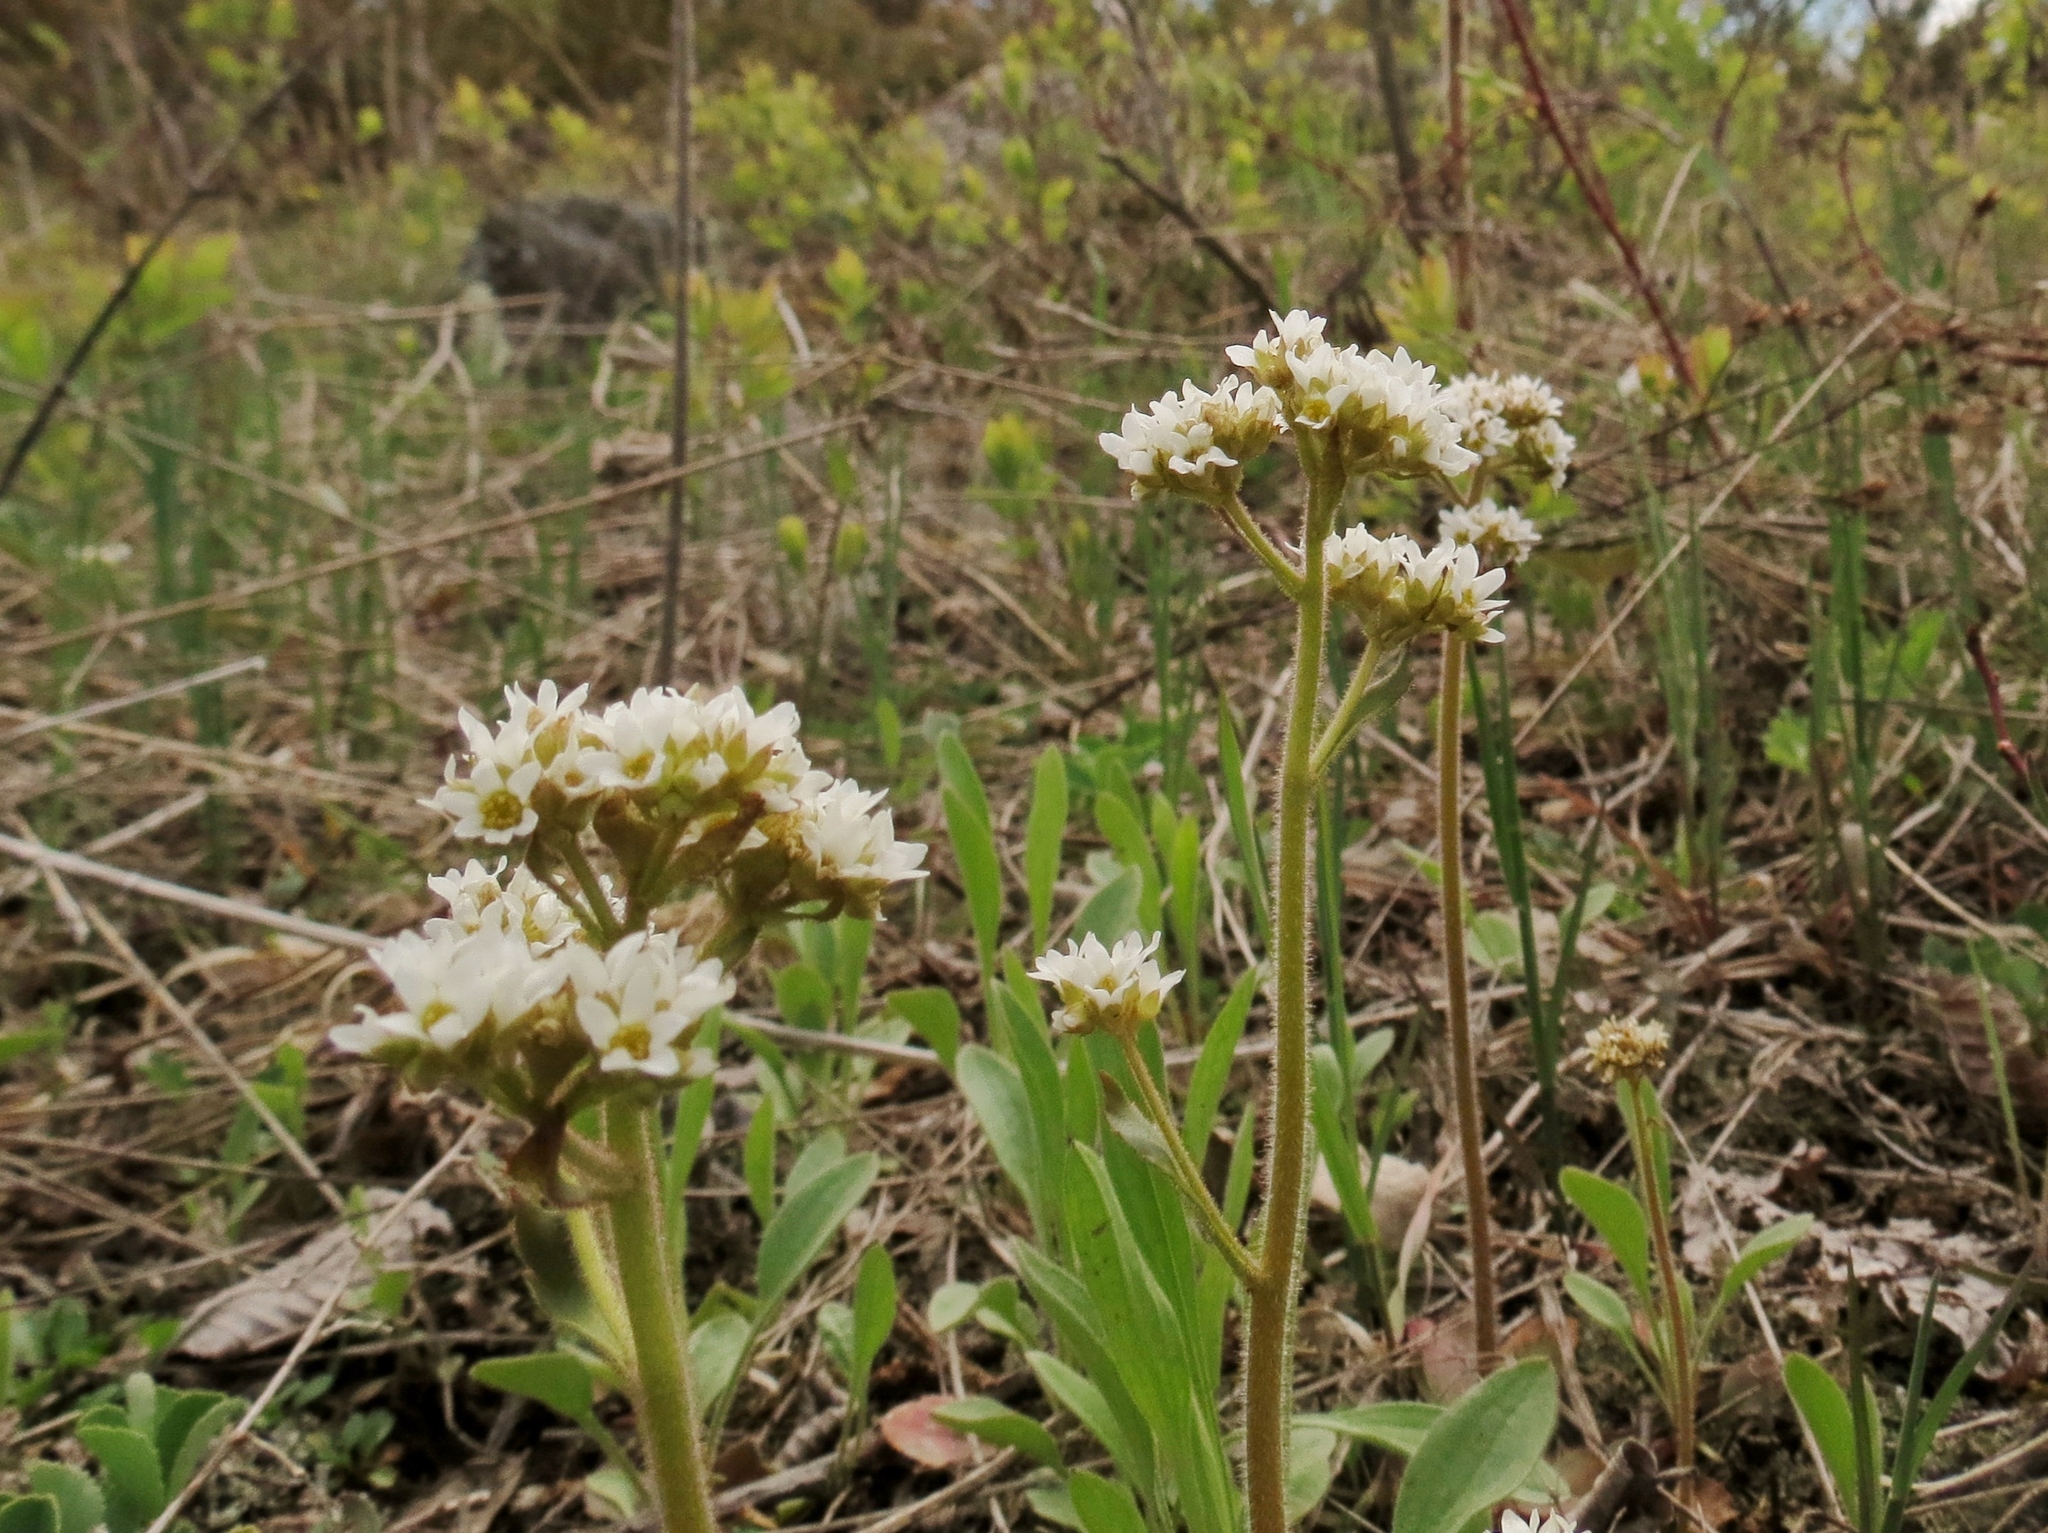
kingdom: Plantae
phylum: Tracheophyta
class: Magnoliopsida
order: Saxifragales
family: Saxifragaceae
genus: Micranthes
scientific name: Micranthes virginiensis
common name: Early saxifrage
